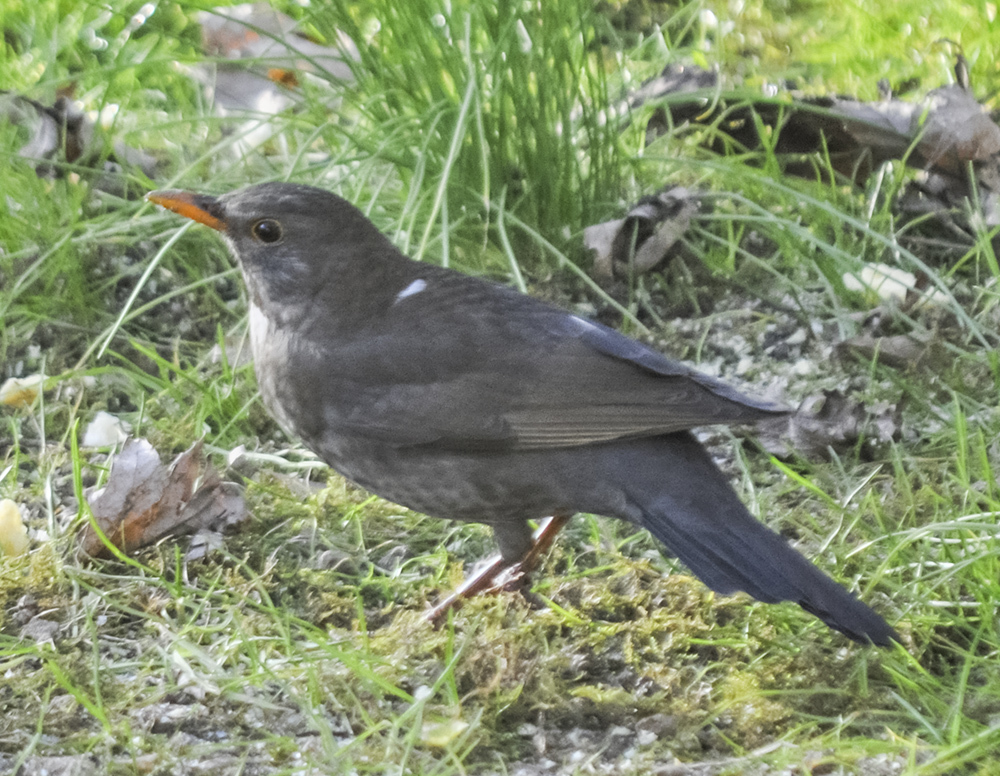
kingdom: Animalia
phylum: Chordata
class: Aves
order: Passeriformes
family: Turdidae
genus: Turdus
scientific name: Turdus merula
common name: Common blackbird
